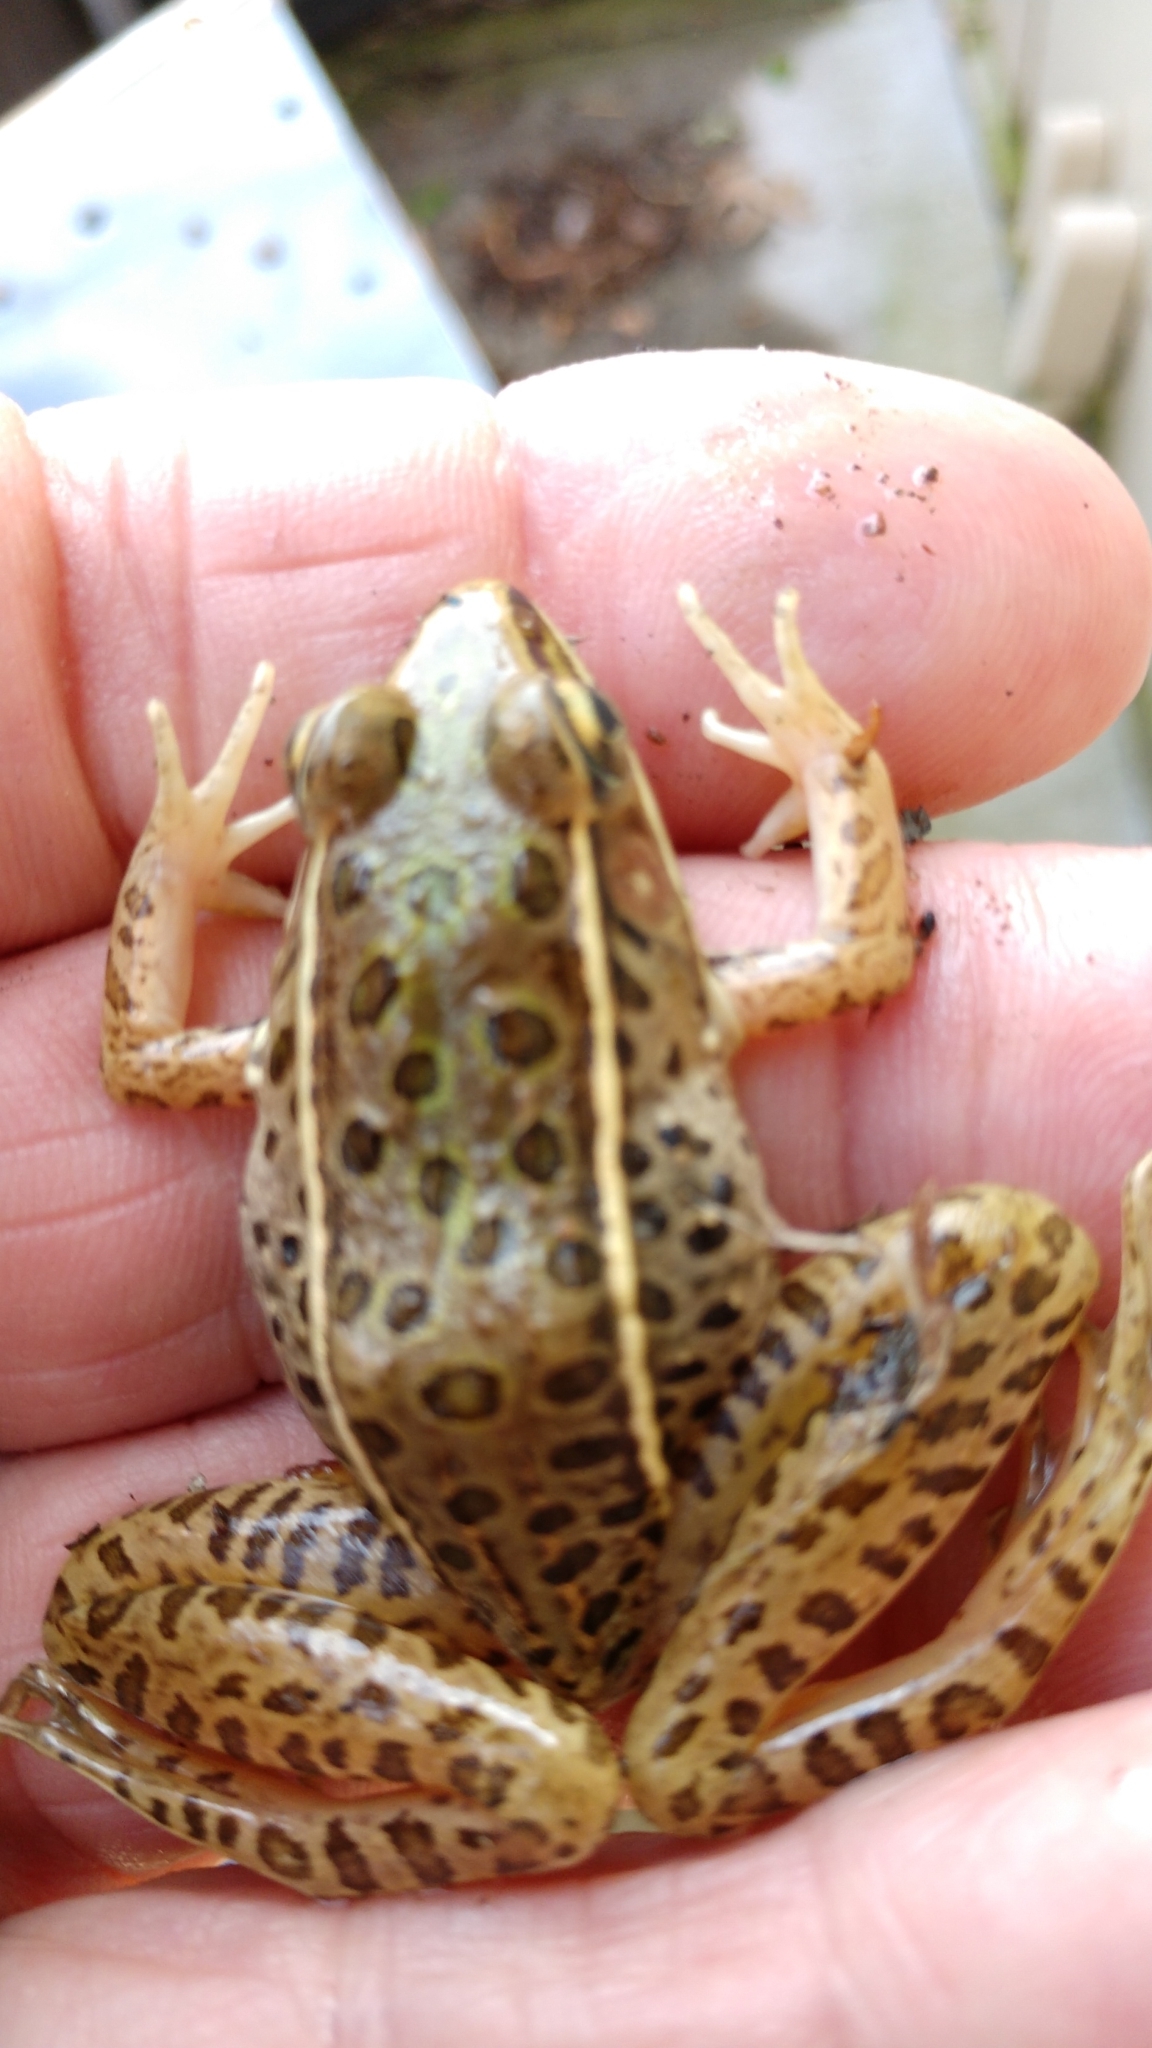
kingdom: Animalia
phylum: Chordata
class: Amphibia
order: Anura
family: Ranidae
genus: Lithobates
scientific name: Lithobates sphenocephalus
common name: Southern leopard frog
